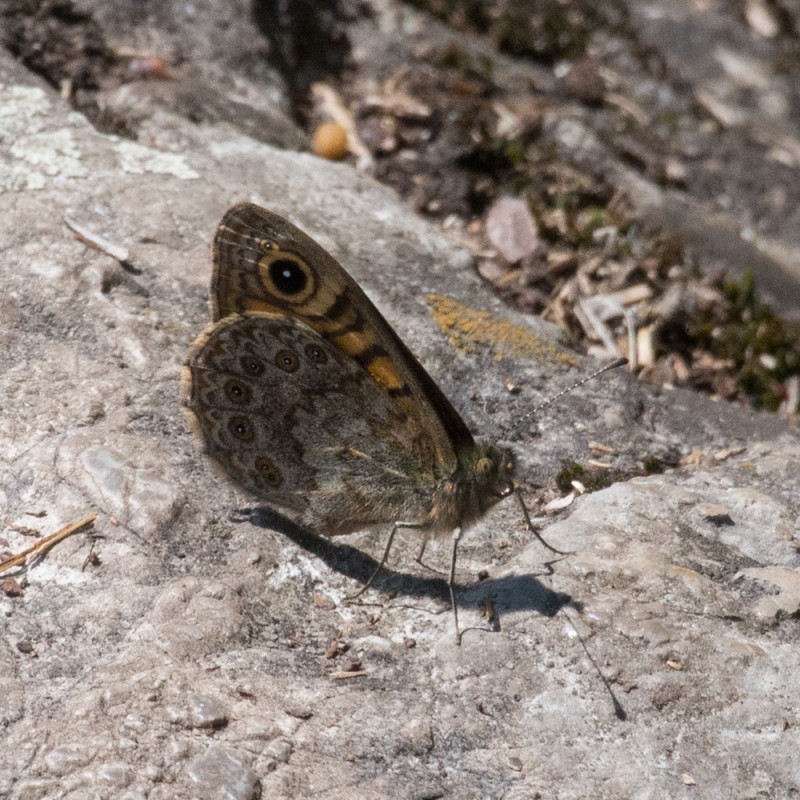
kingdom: Animalia
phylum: Arthropoda
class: Insecta
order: Lepidoptera
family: Nymphalidae
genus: Pararge
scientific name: Pararge Lasiommata megera
